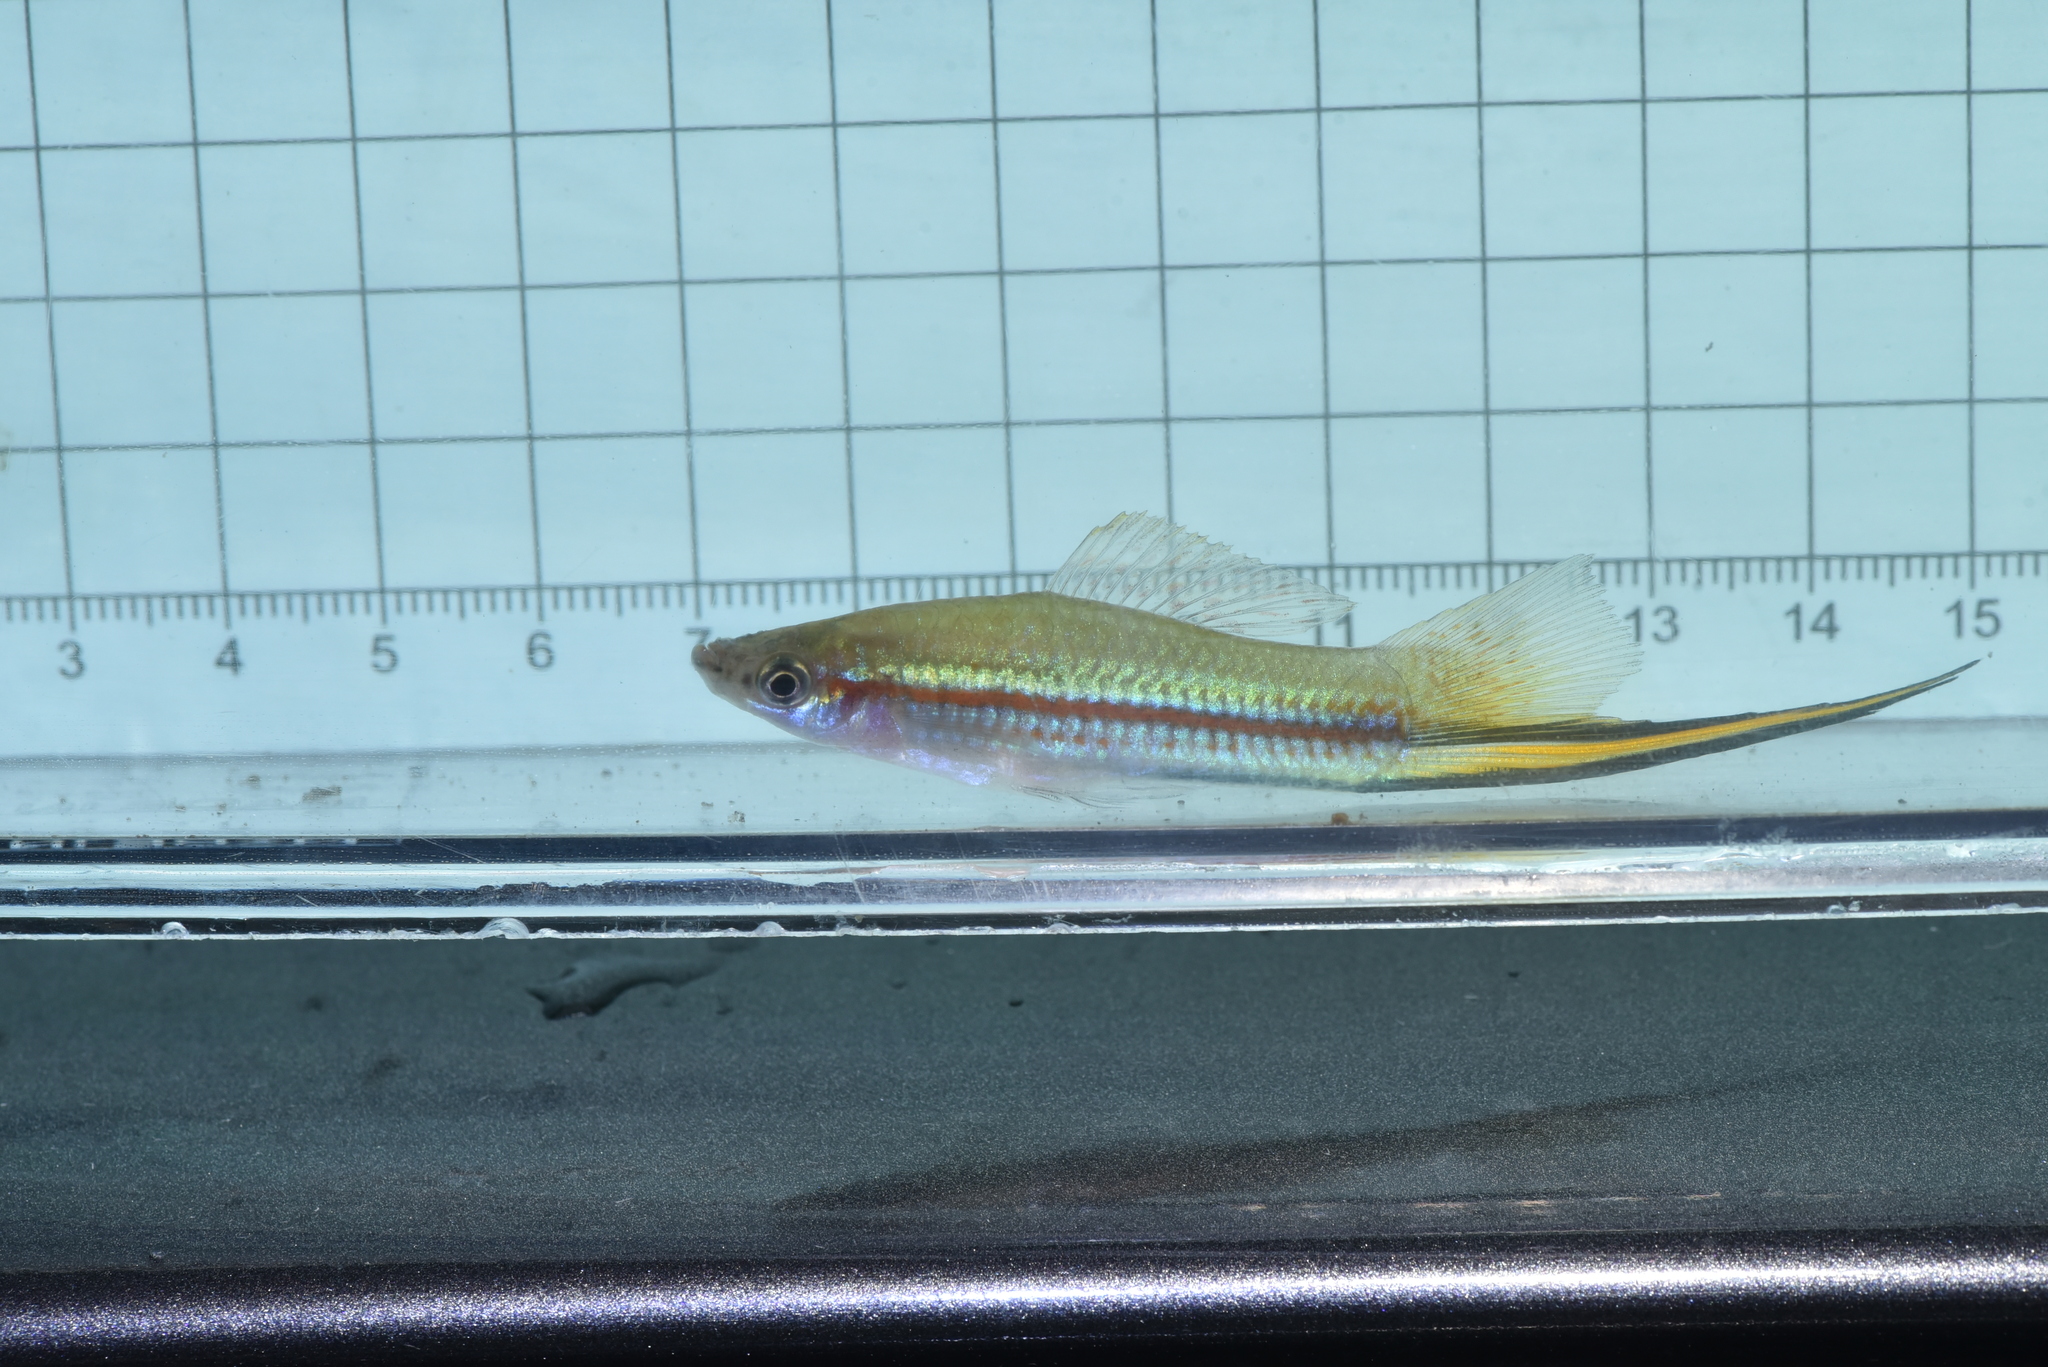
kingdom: Animalia
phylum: Chordata
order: Cyprinodontiformes
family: Poeciliidae
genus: Xiphophorus
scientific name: Xiphophorus hellerii
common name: Green swordtail
